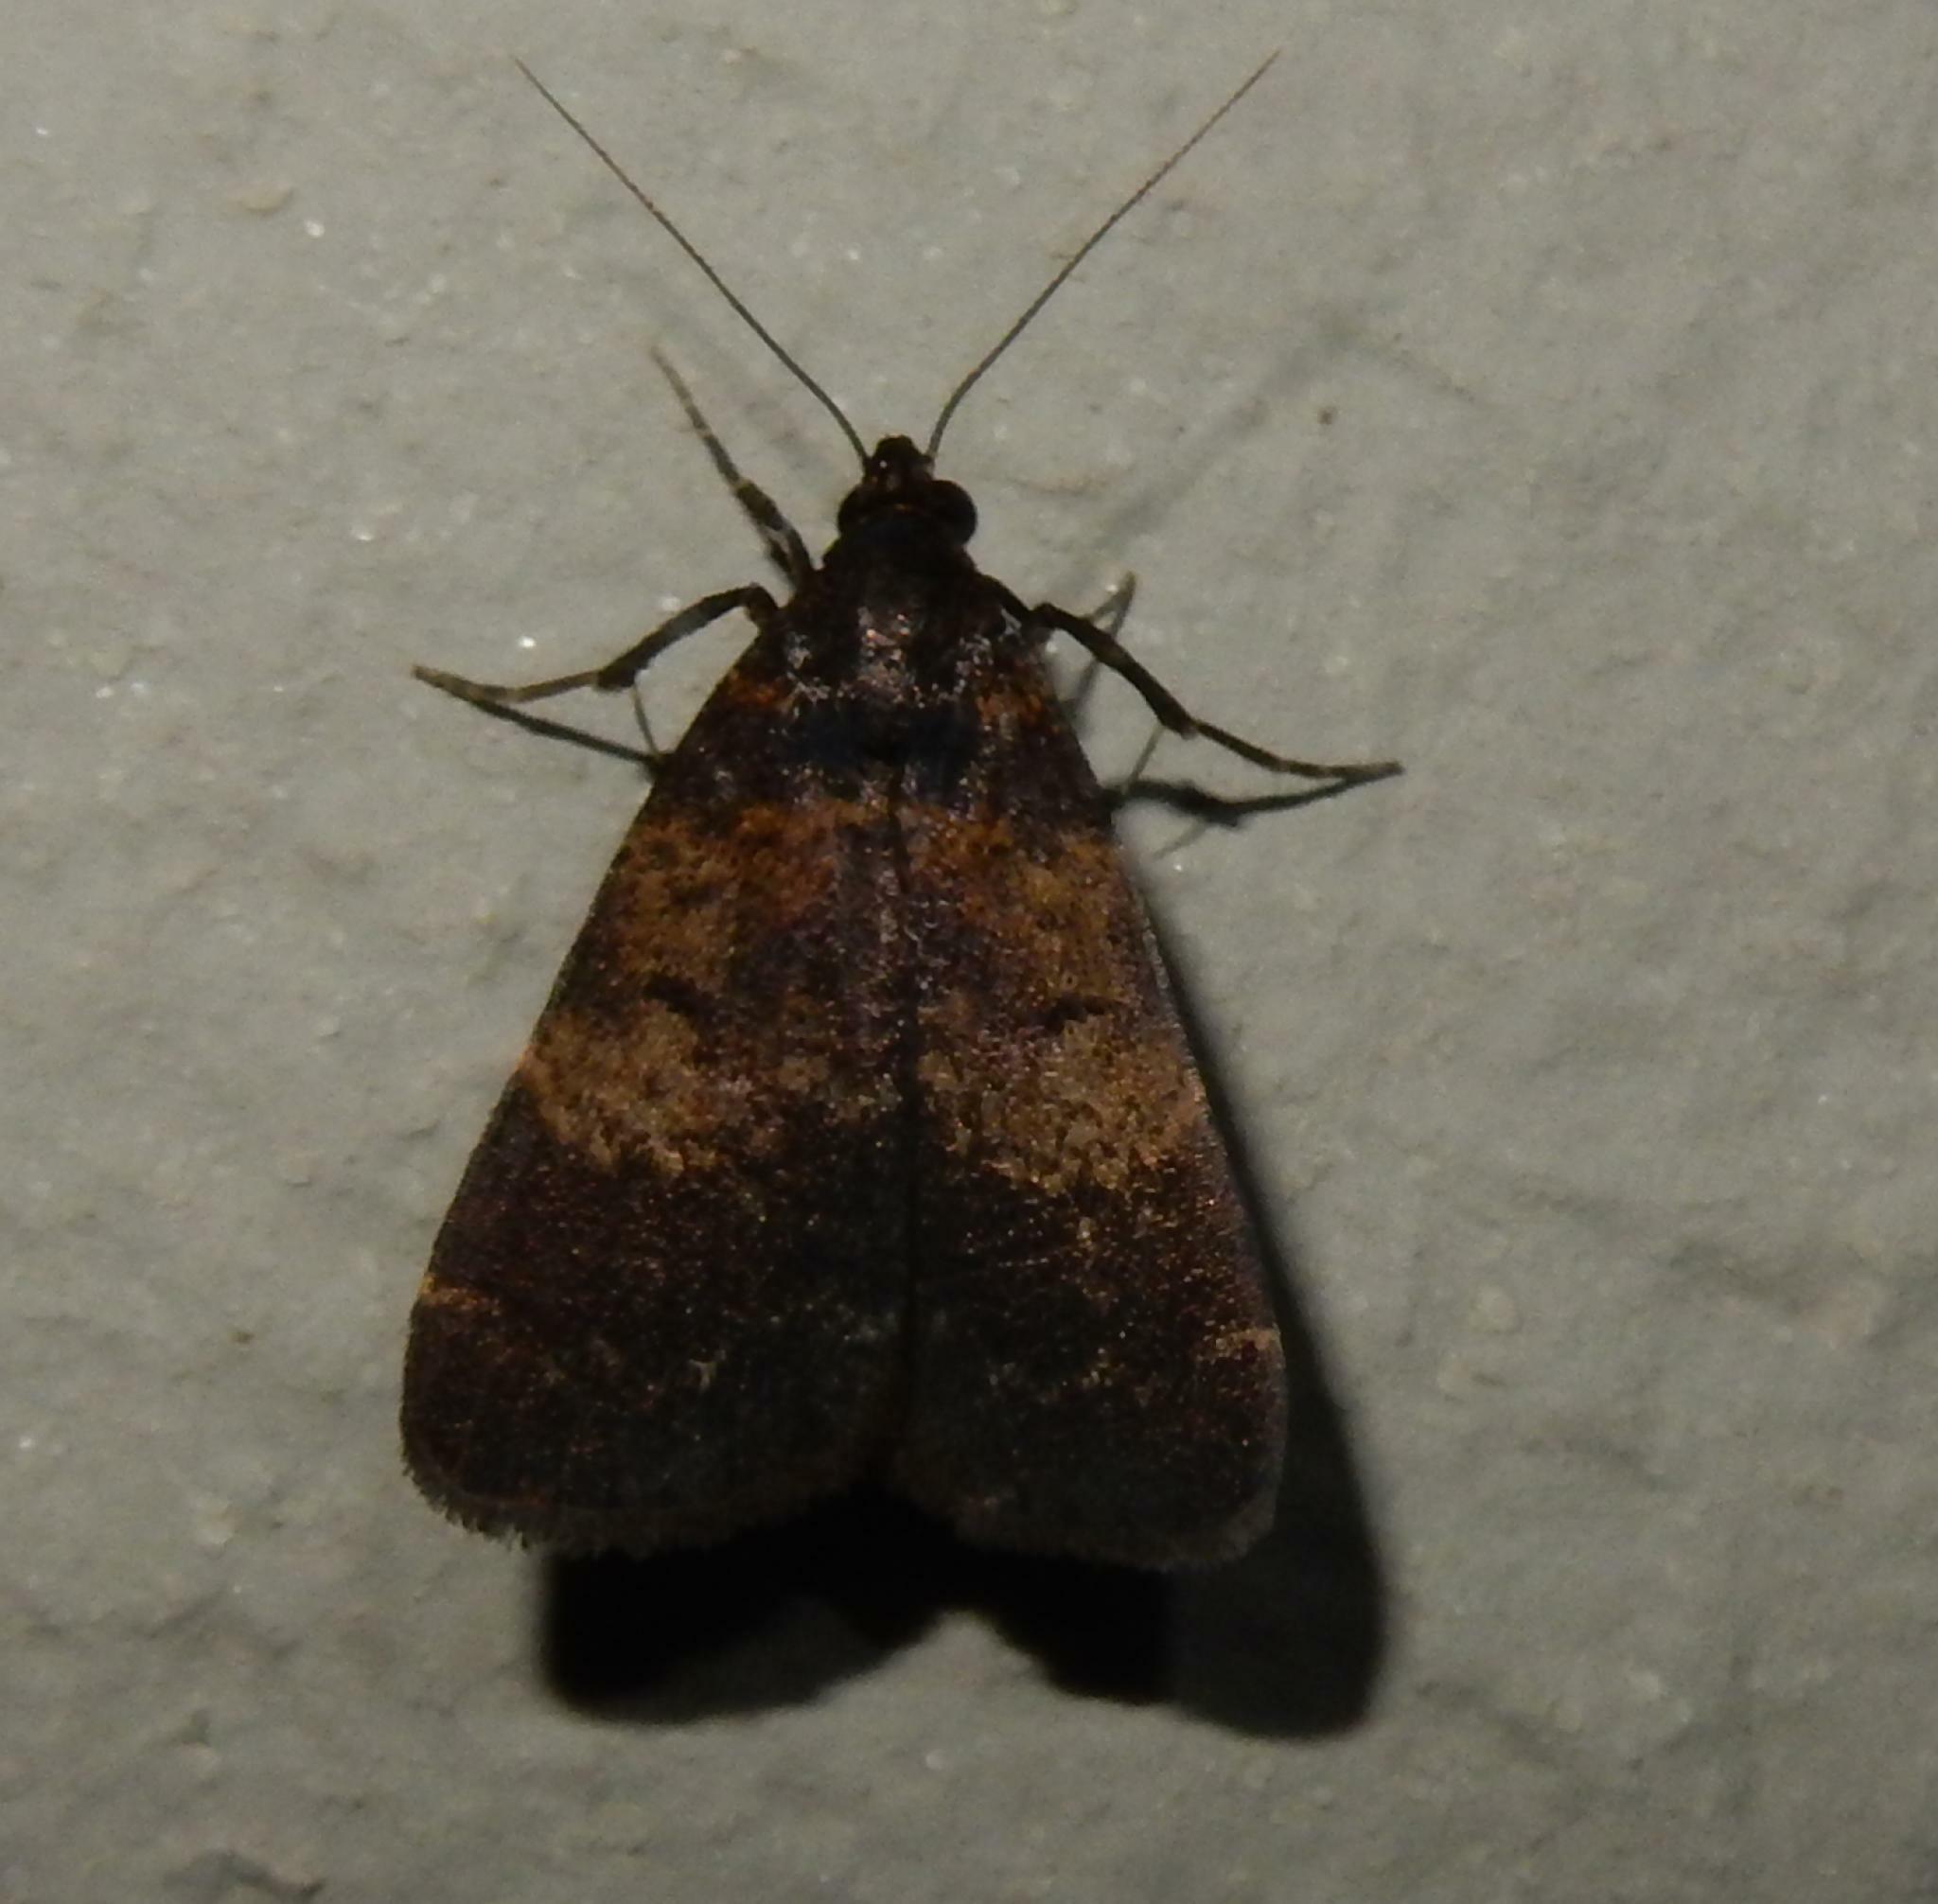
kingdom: Animalia
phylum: Arthropoda
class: Insecta
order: Lepidoptera
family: Erebidae
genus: Hydrillodes
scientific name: Hydrillodes uliginosalis
